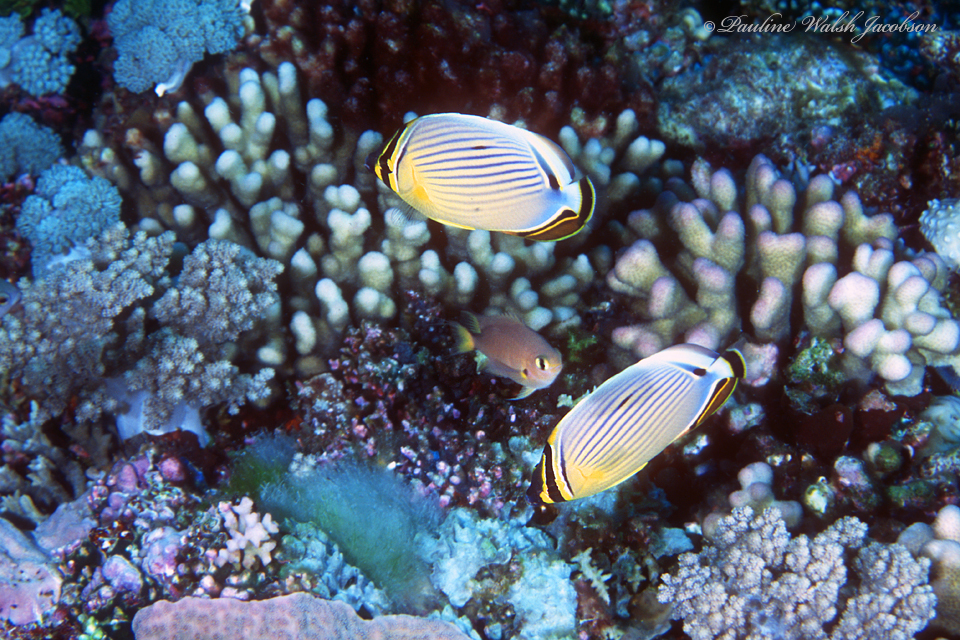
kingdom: Animalia
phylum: Chordata
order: Perciformes
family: Chaetodontidae
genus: Chaetodon
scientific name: Chaetodon lunulatus
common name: Redfin butterflyfish
